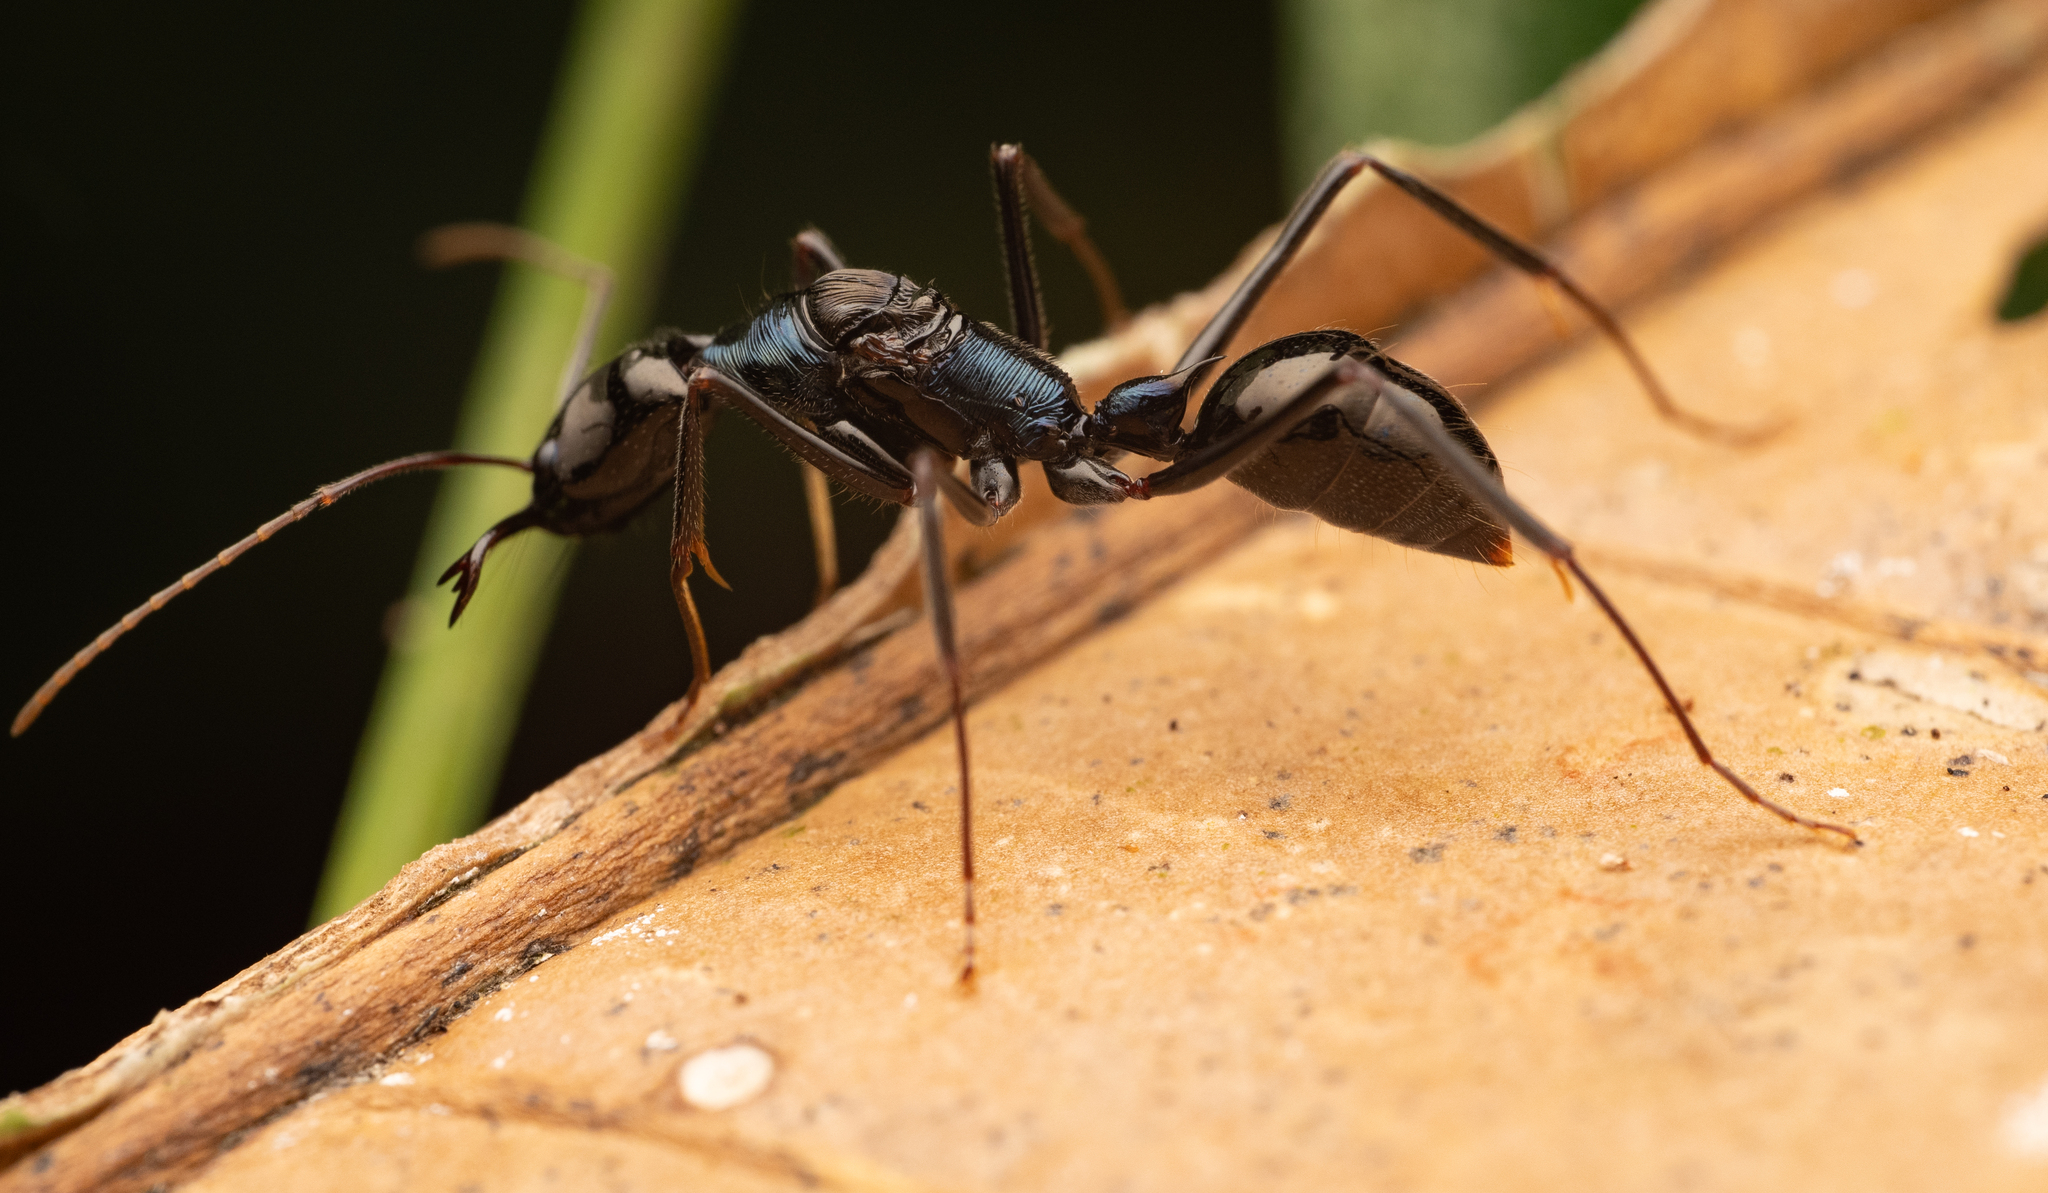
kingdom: Animalia
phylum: Arthropoda
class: Insecta
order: Hymenoptera
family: Formicidae
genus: Odontomachus
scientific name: Odontomachus tyrannicus
